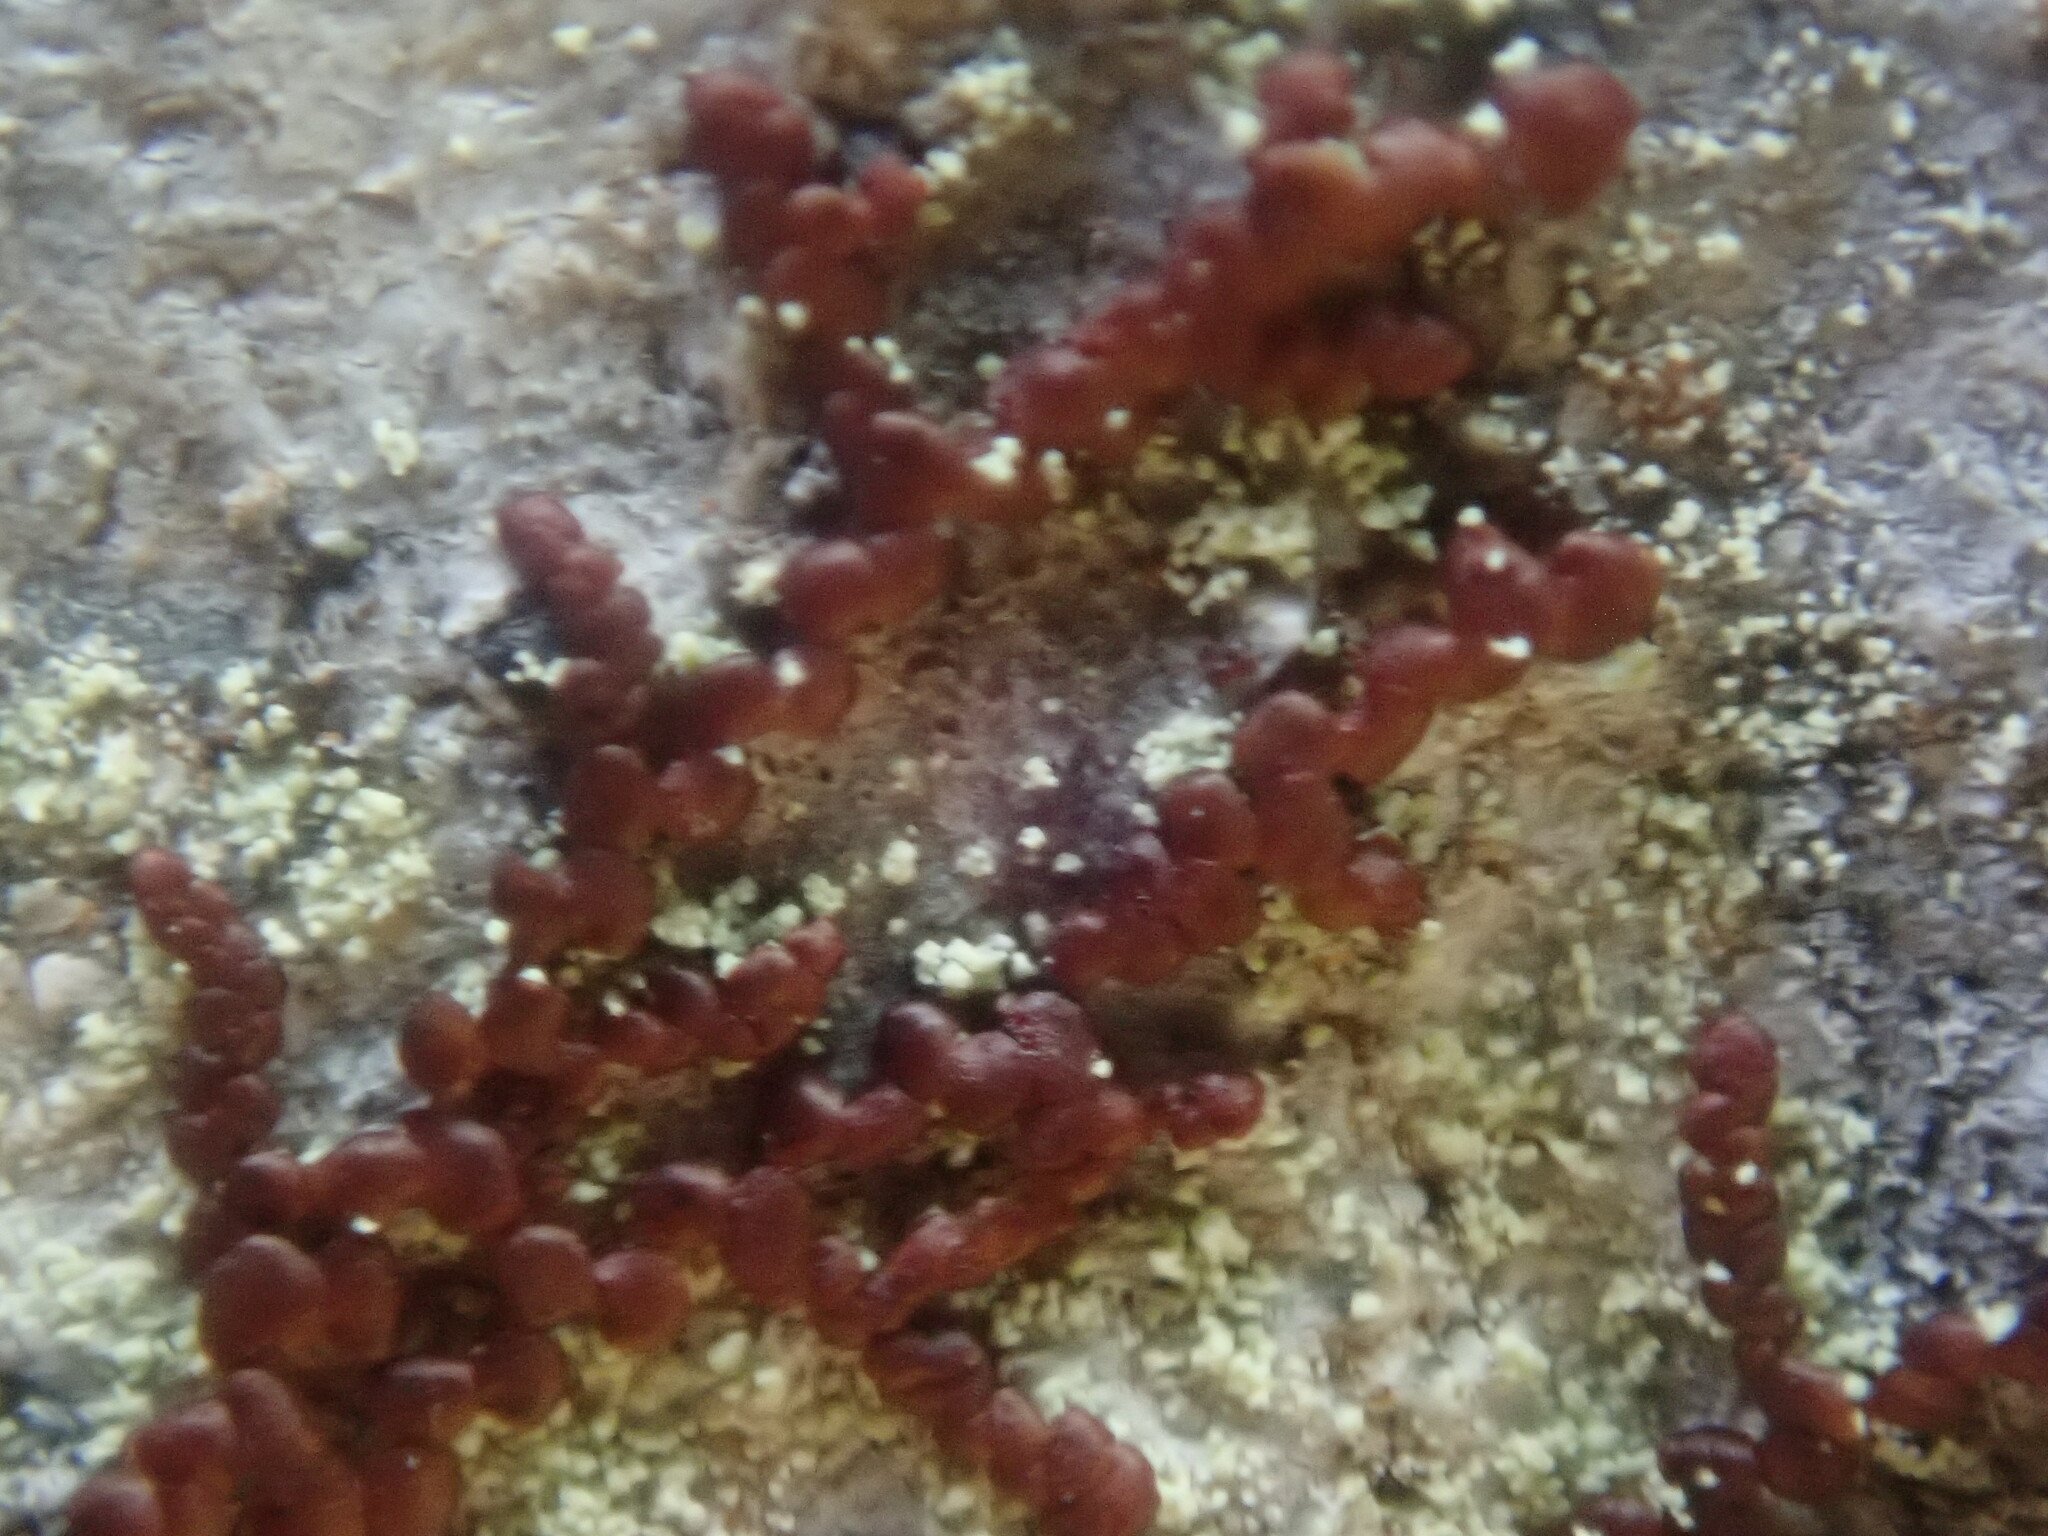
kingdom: Plantae
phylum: Marchantiophyta
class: Jungermanniopsida
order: Porellales
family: Frullaniaceae
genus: Frullania
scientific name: Frullania
